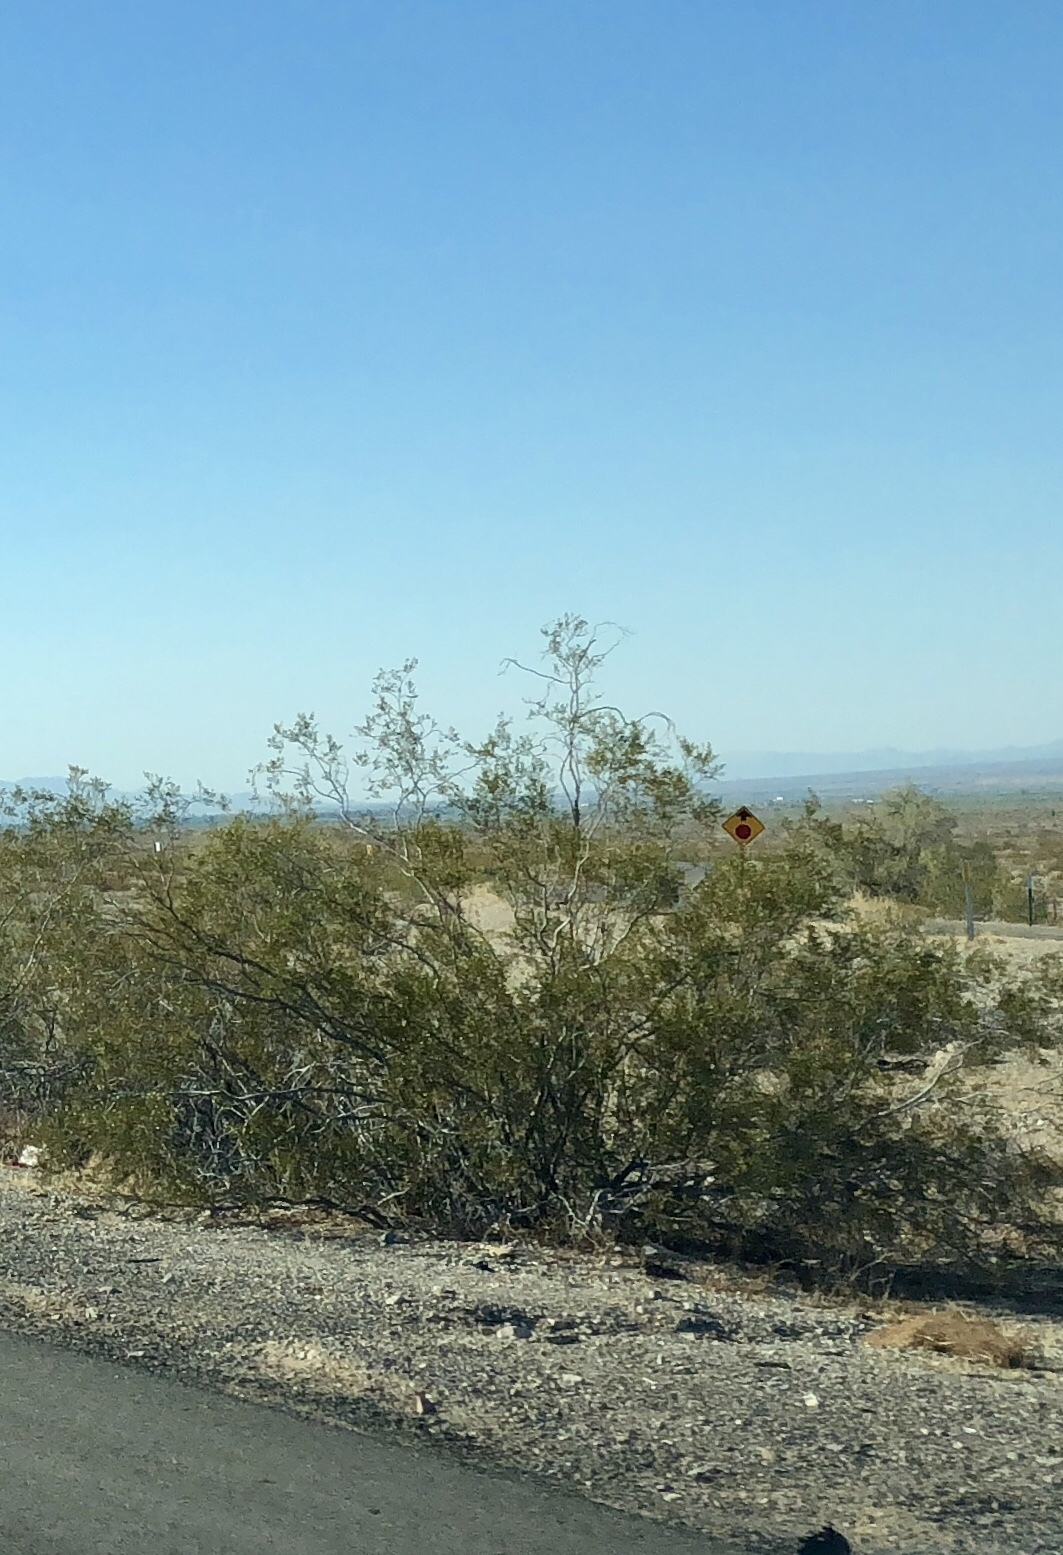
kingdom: Plantae
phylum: Tracheophyta
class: Magnoliopsida
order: Zygophyllales
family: Zygophyllaceae
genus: Larrea
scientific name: Larrea tridentata
